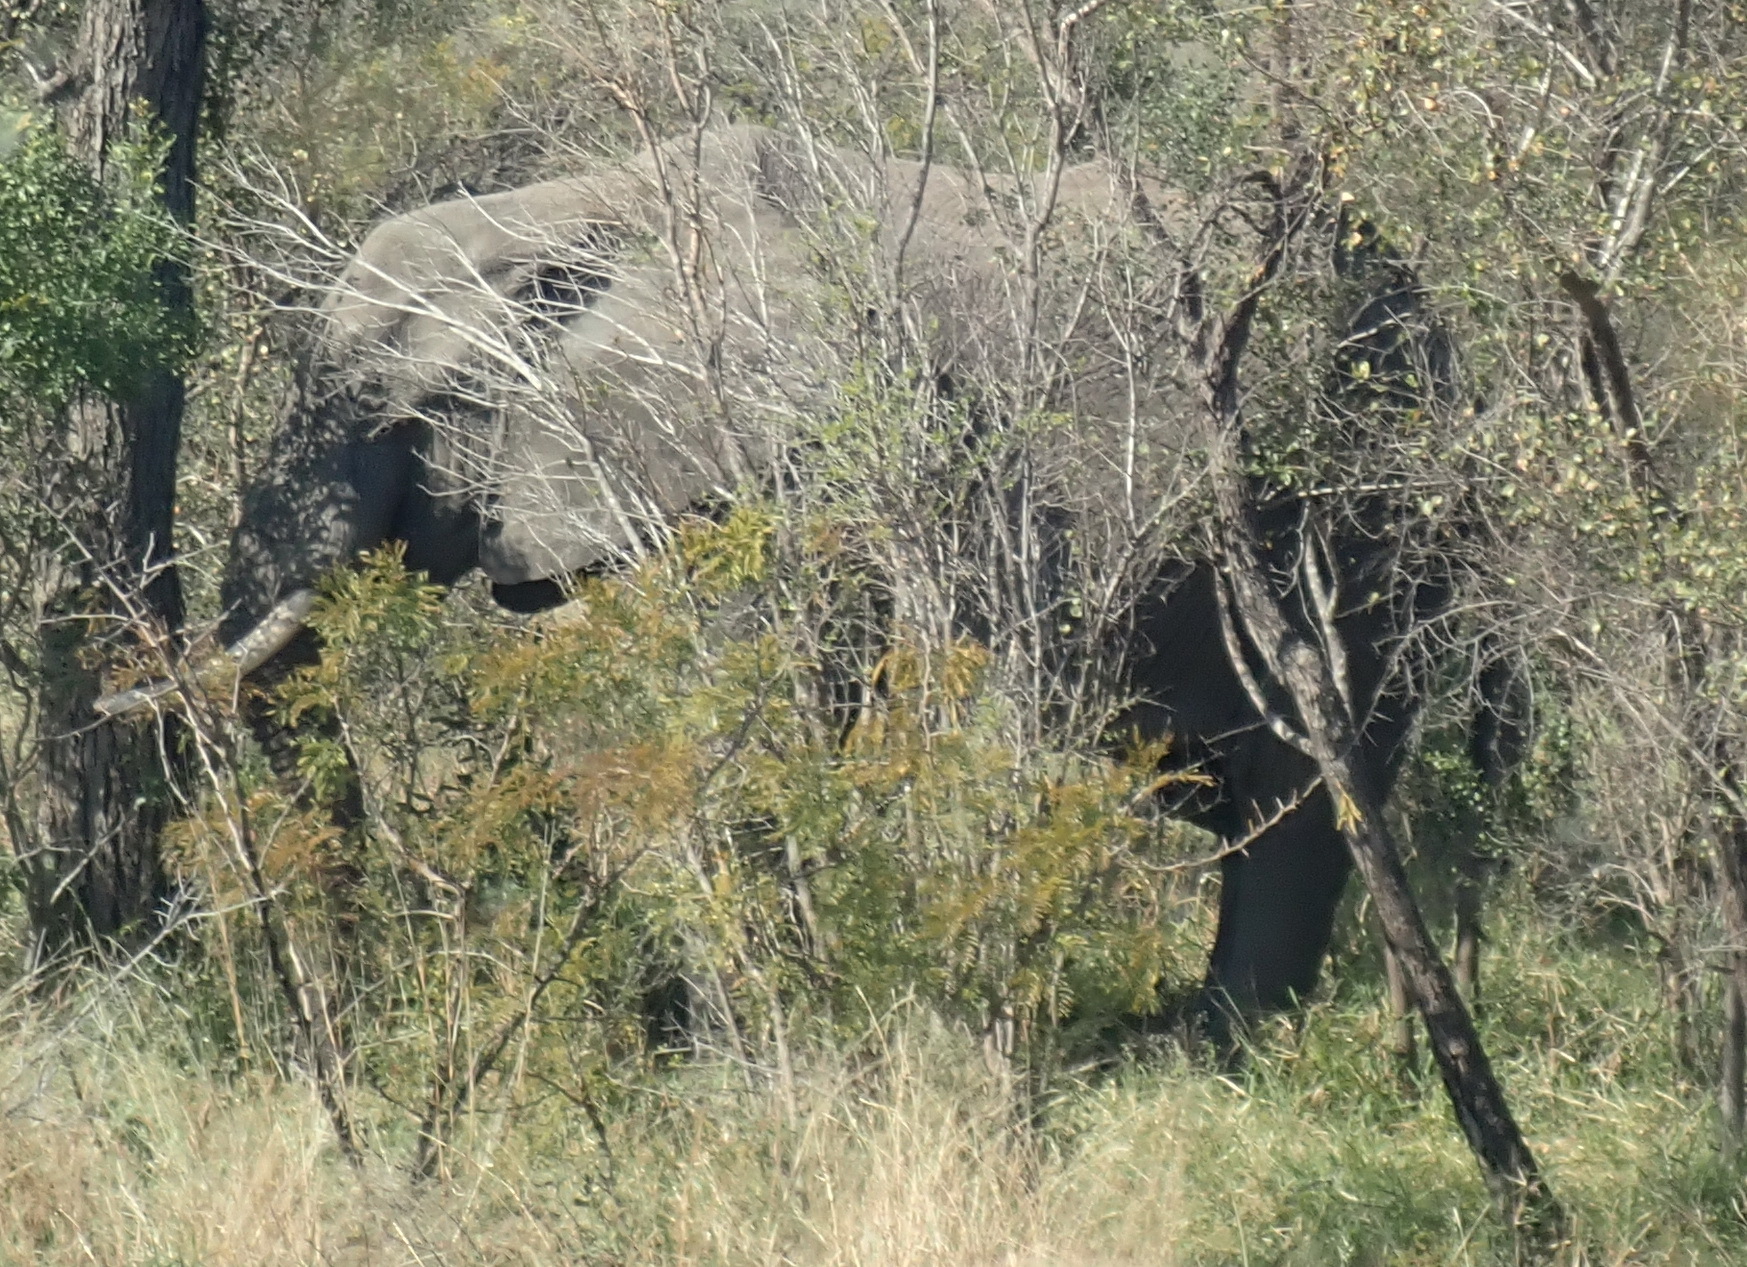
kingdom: Animalia
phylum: Chordata
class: Mammalia
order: Proboscidea
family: Elephantidae
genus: Loxodonta
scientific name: Loxodonta africana
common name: African elephant
